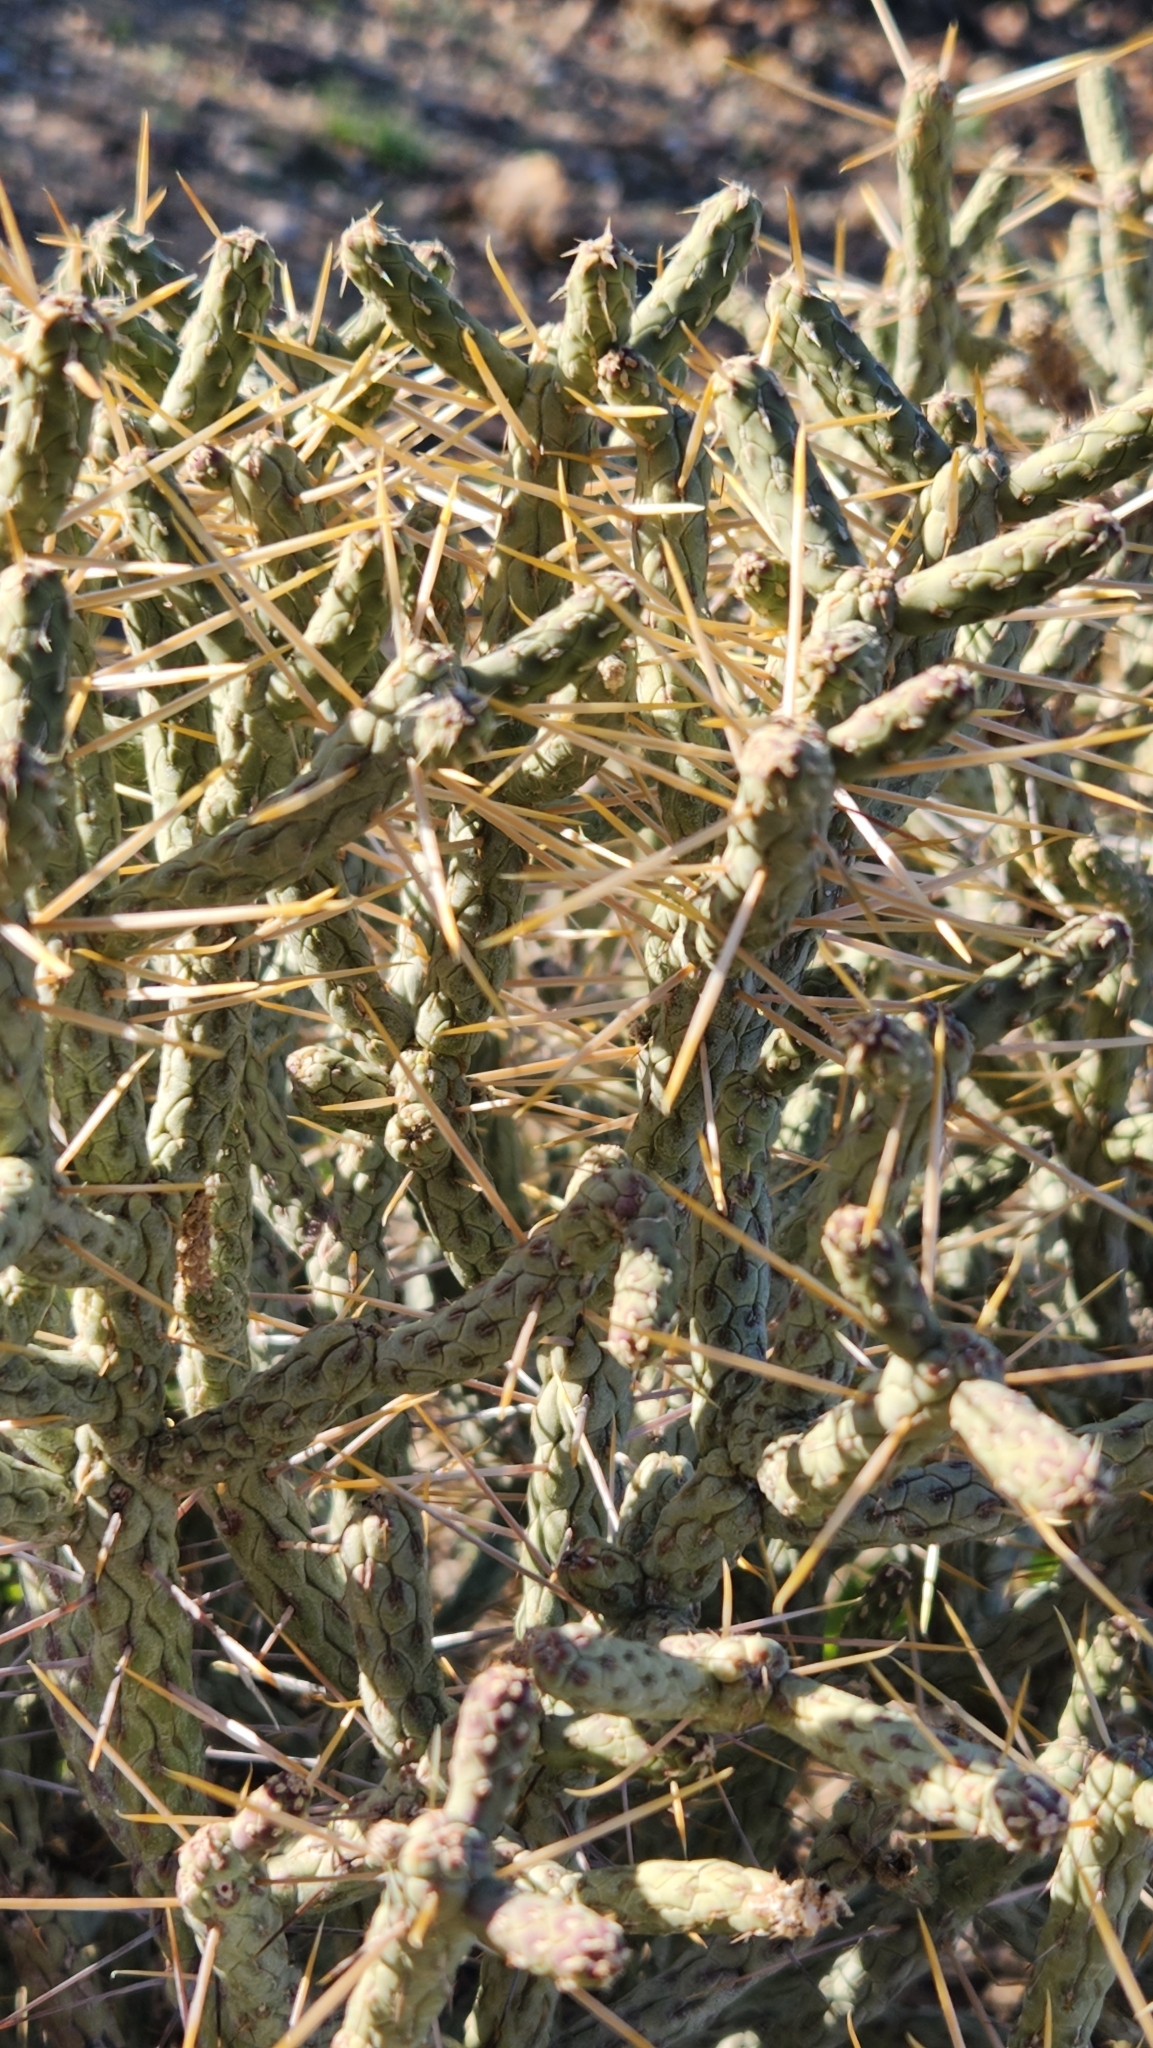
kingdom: Plantae
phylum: Tracheophyta
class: Magnoliopsida
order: Caryophyllales
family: Cactaceae
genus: Cylindropuntia
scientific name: Cylindropuntia ramosissima
